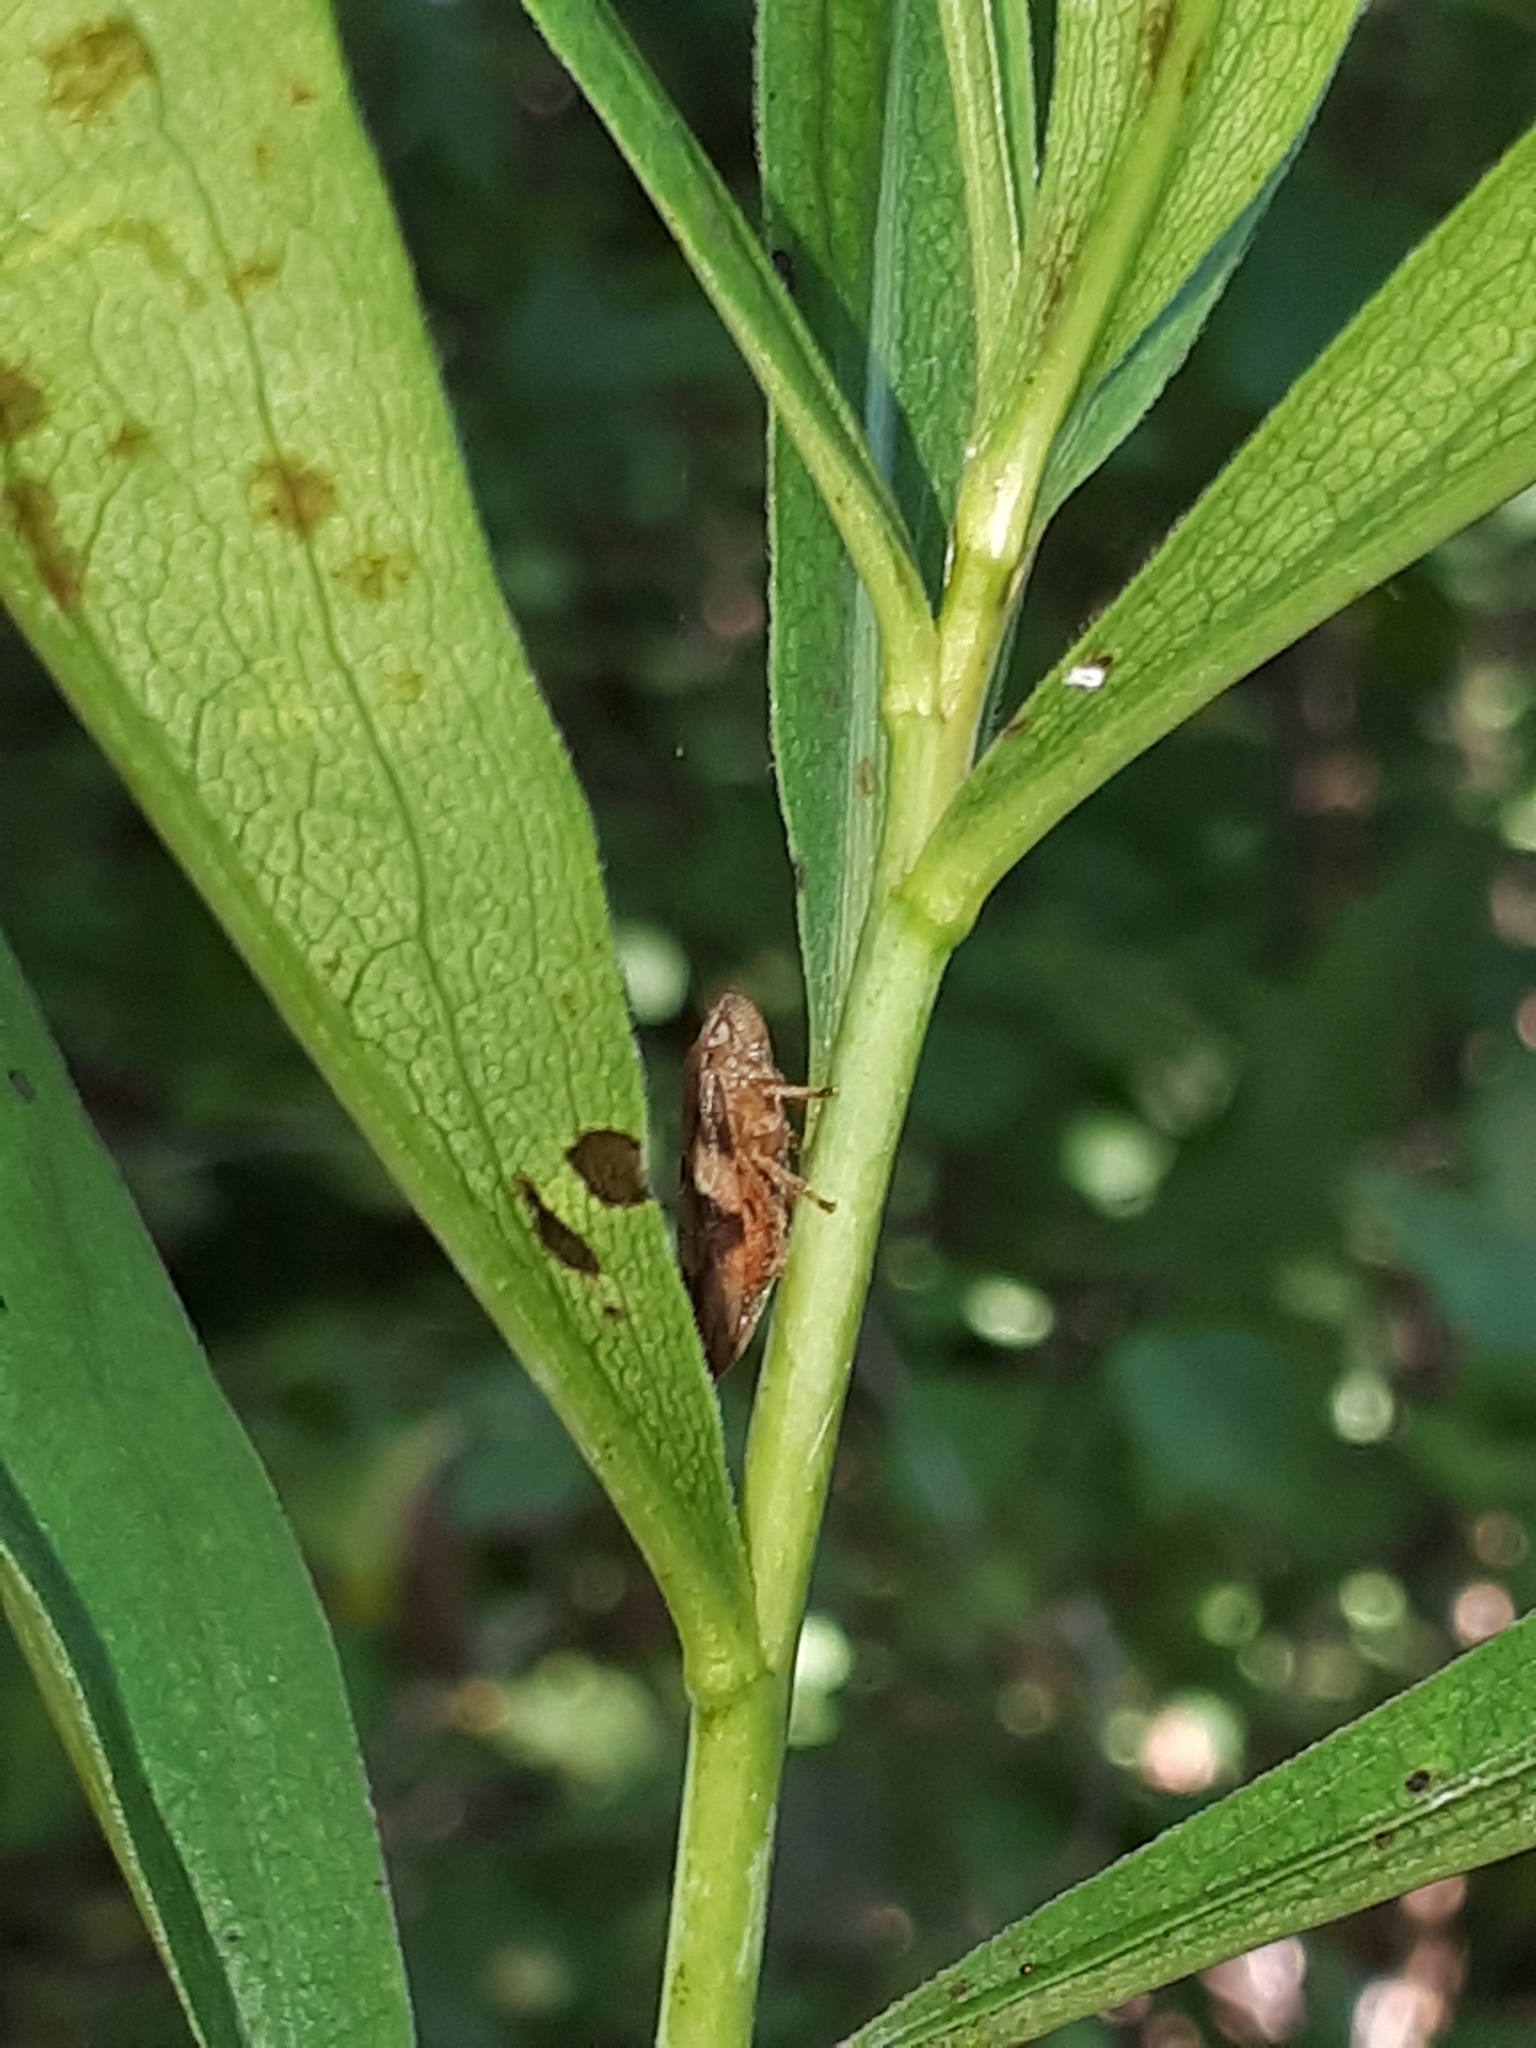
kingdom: Animalia
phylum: Arthropoda
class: Insecta
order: Hemiptera
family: Aphrophoridae
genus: Aphrophora
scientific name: Aphrophora alni
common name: European alder spittlebug
